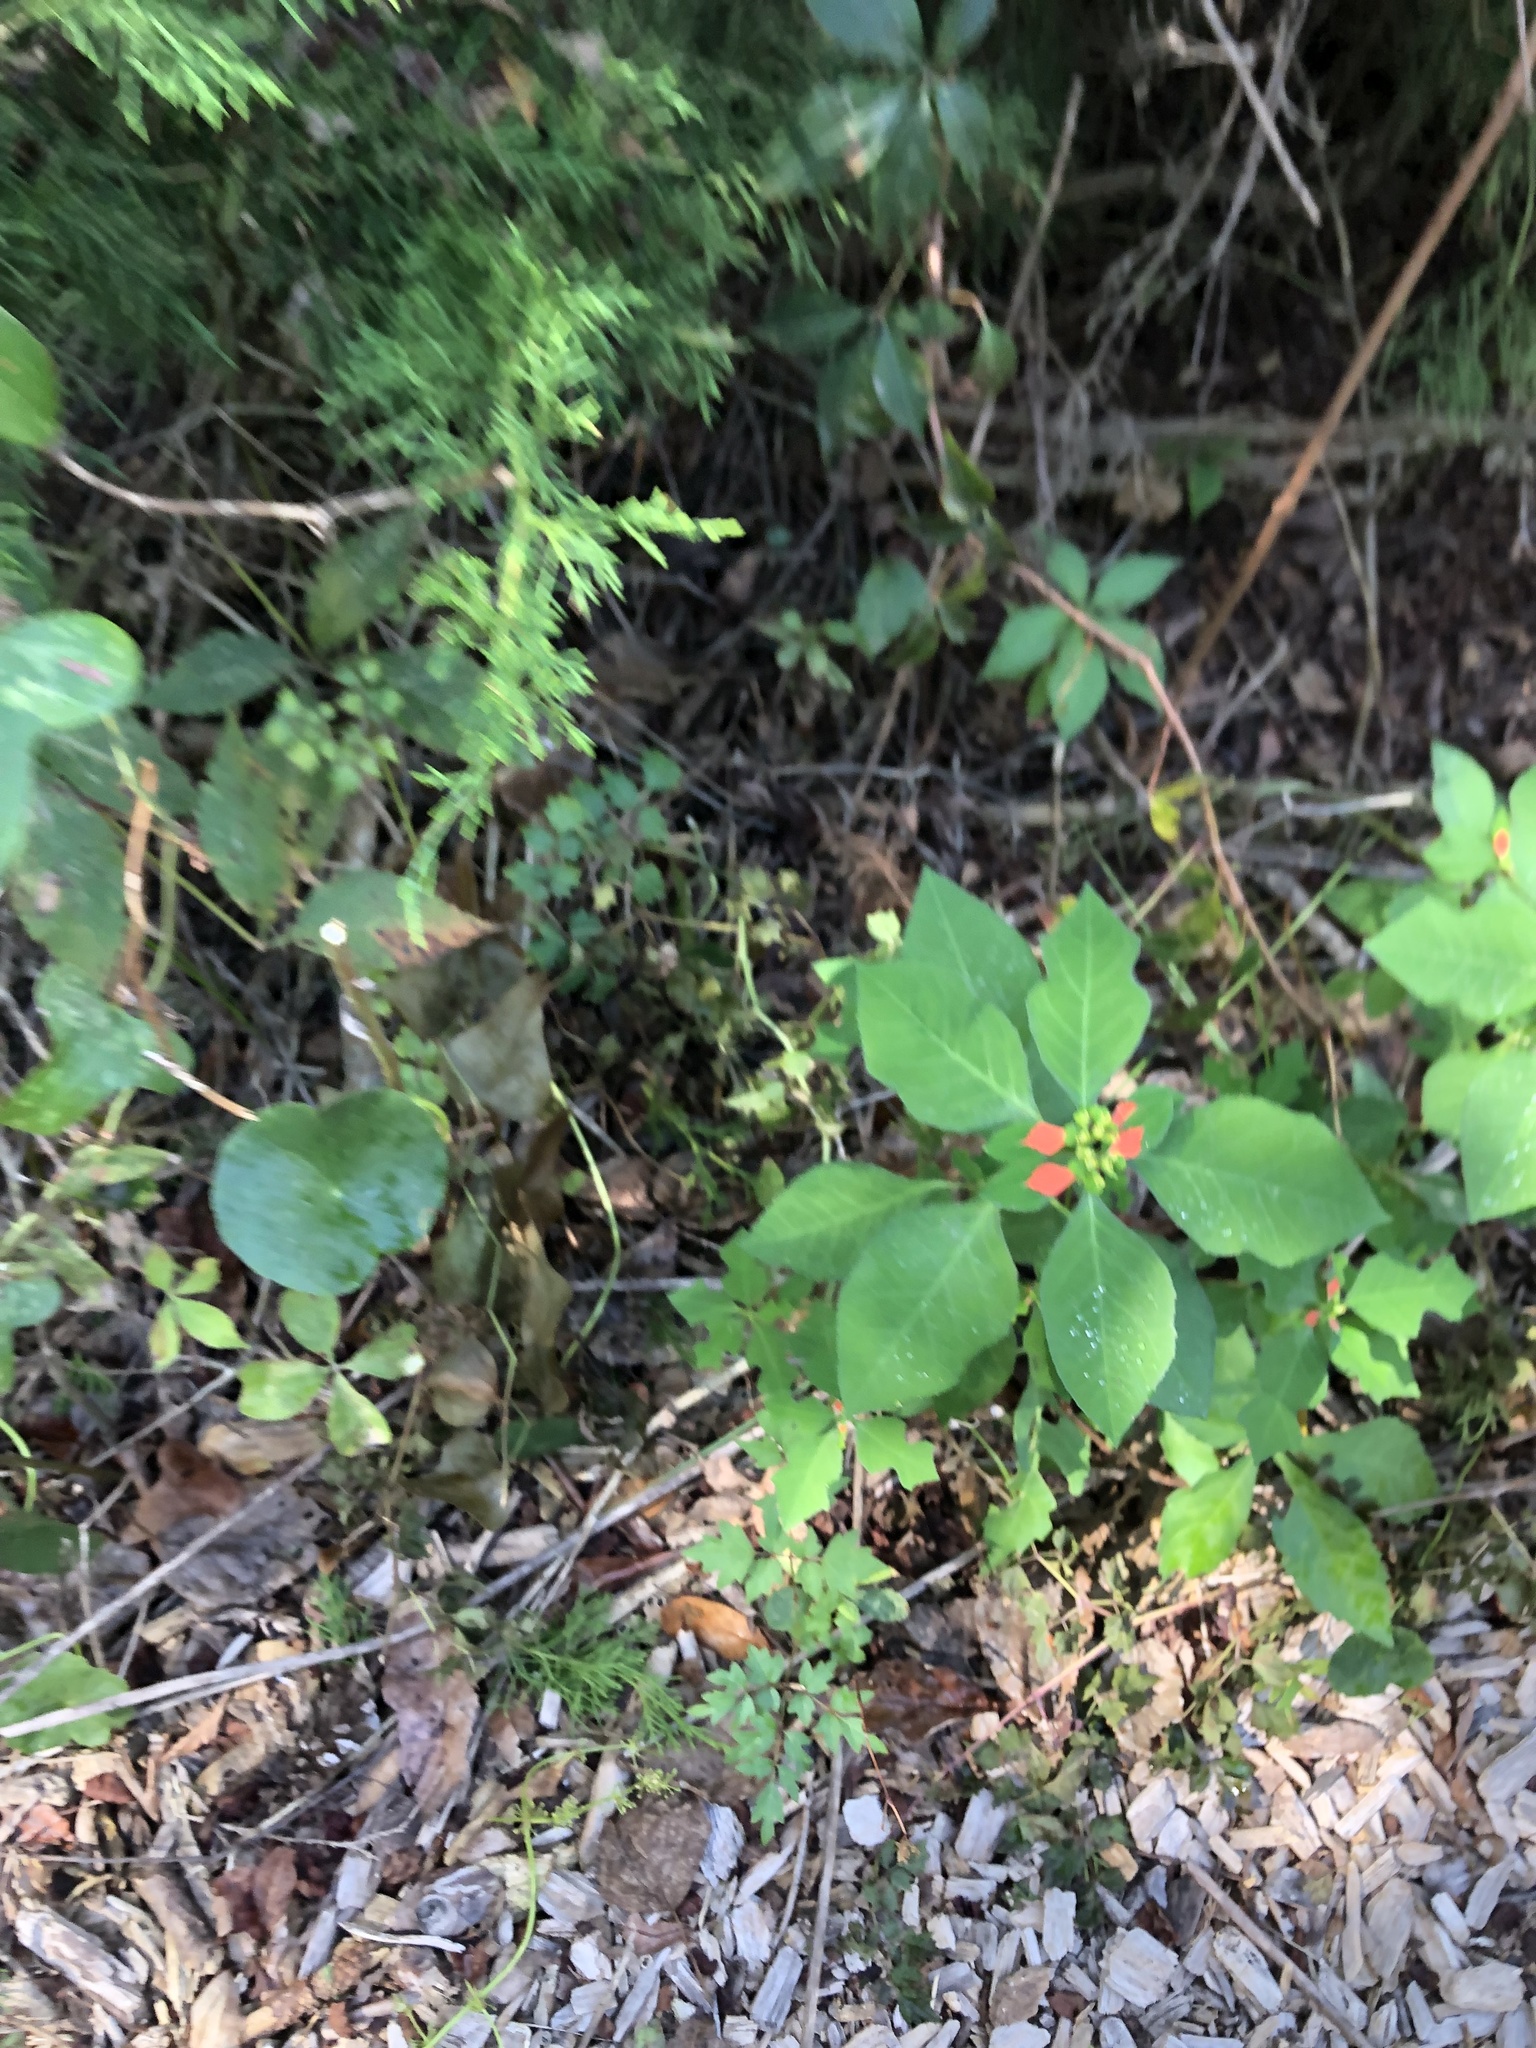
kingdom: Plantae
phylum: Tracheophyta
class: Magnoliopsida
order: Malpighiales
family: Euphorbiaceae
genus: Euphorbia
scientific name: Euphorbia heterophylla
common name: Mexican fireplant
